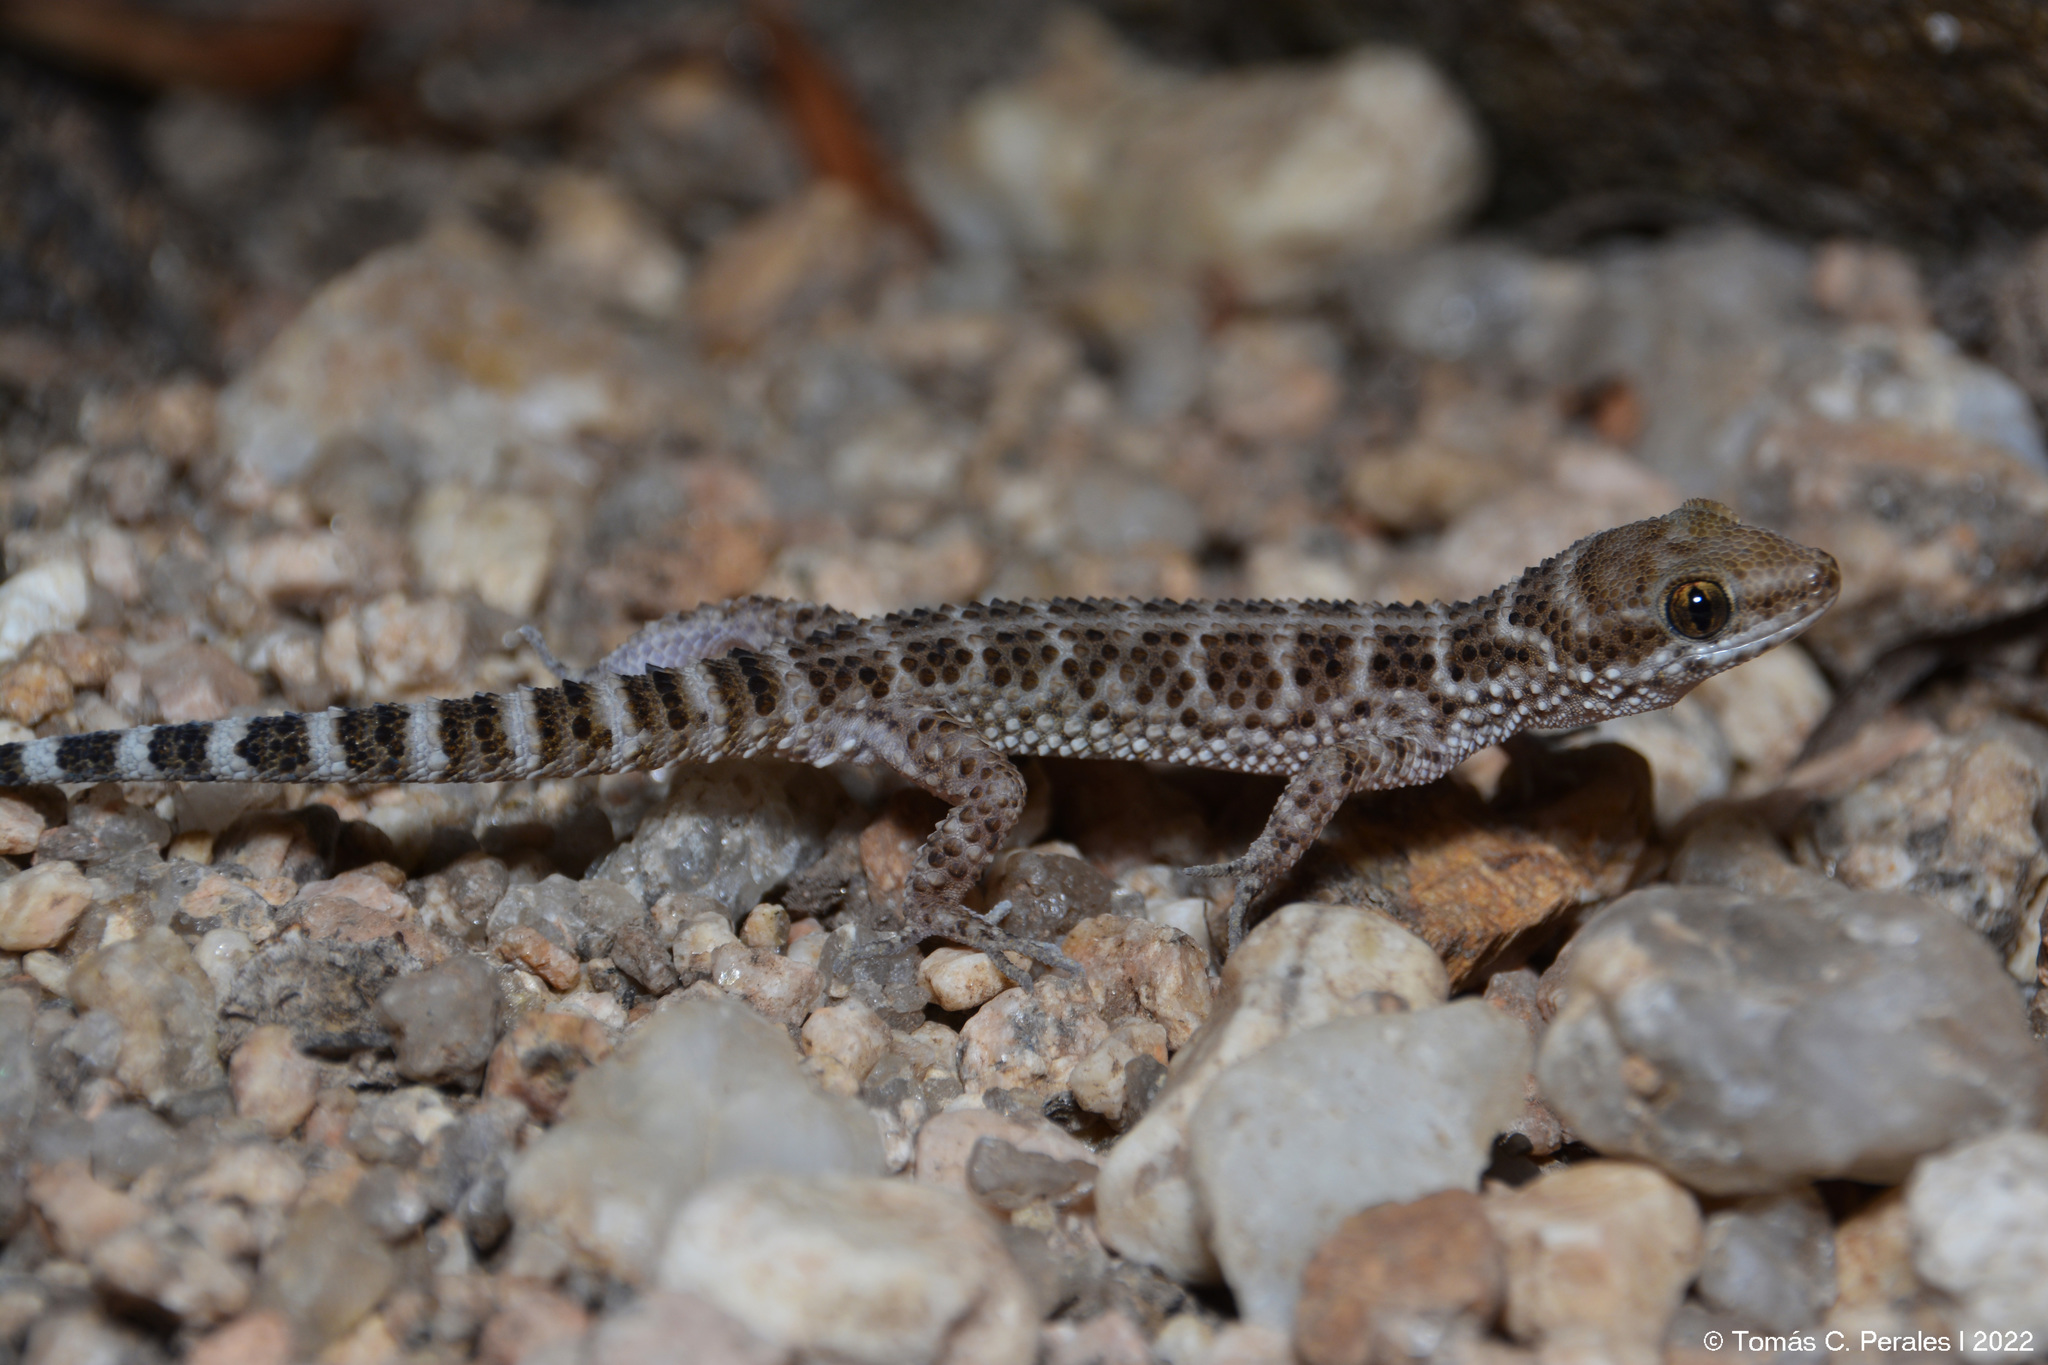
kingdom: Animalia
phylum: Chordata
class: Squamata
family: Phyllodactylidae
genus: Homonota
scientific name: Homonota horrida
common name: South american marked gecko
